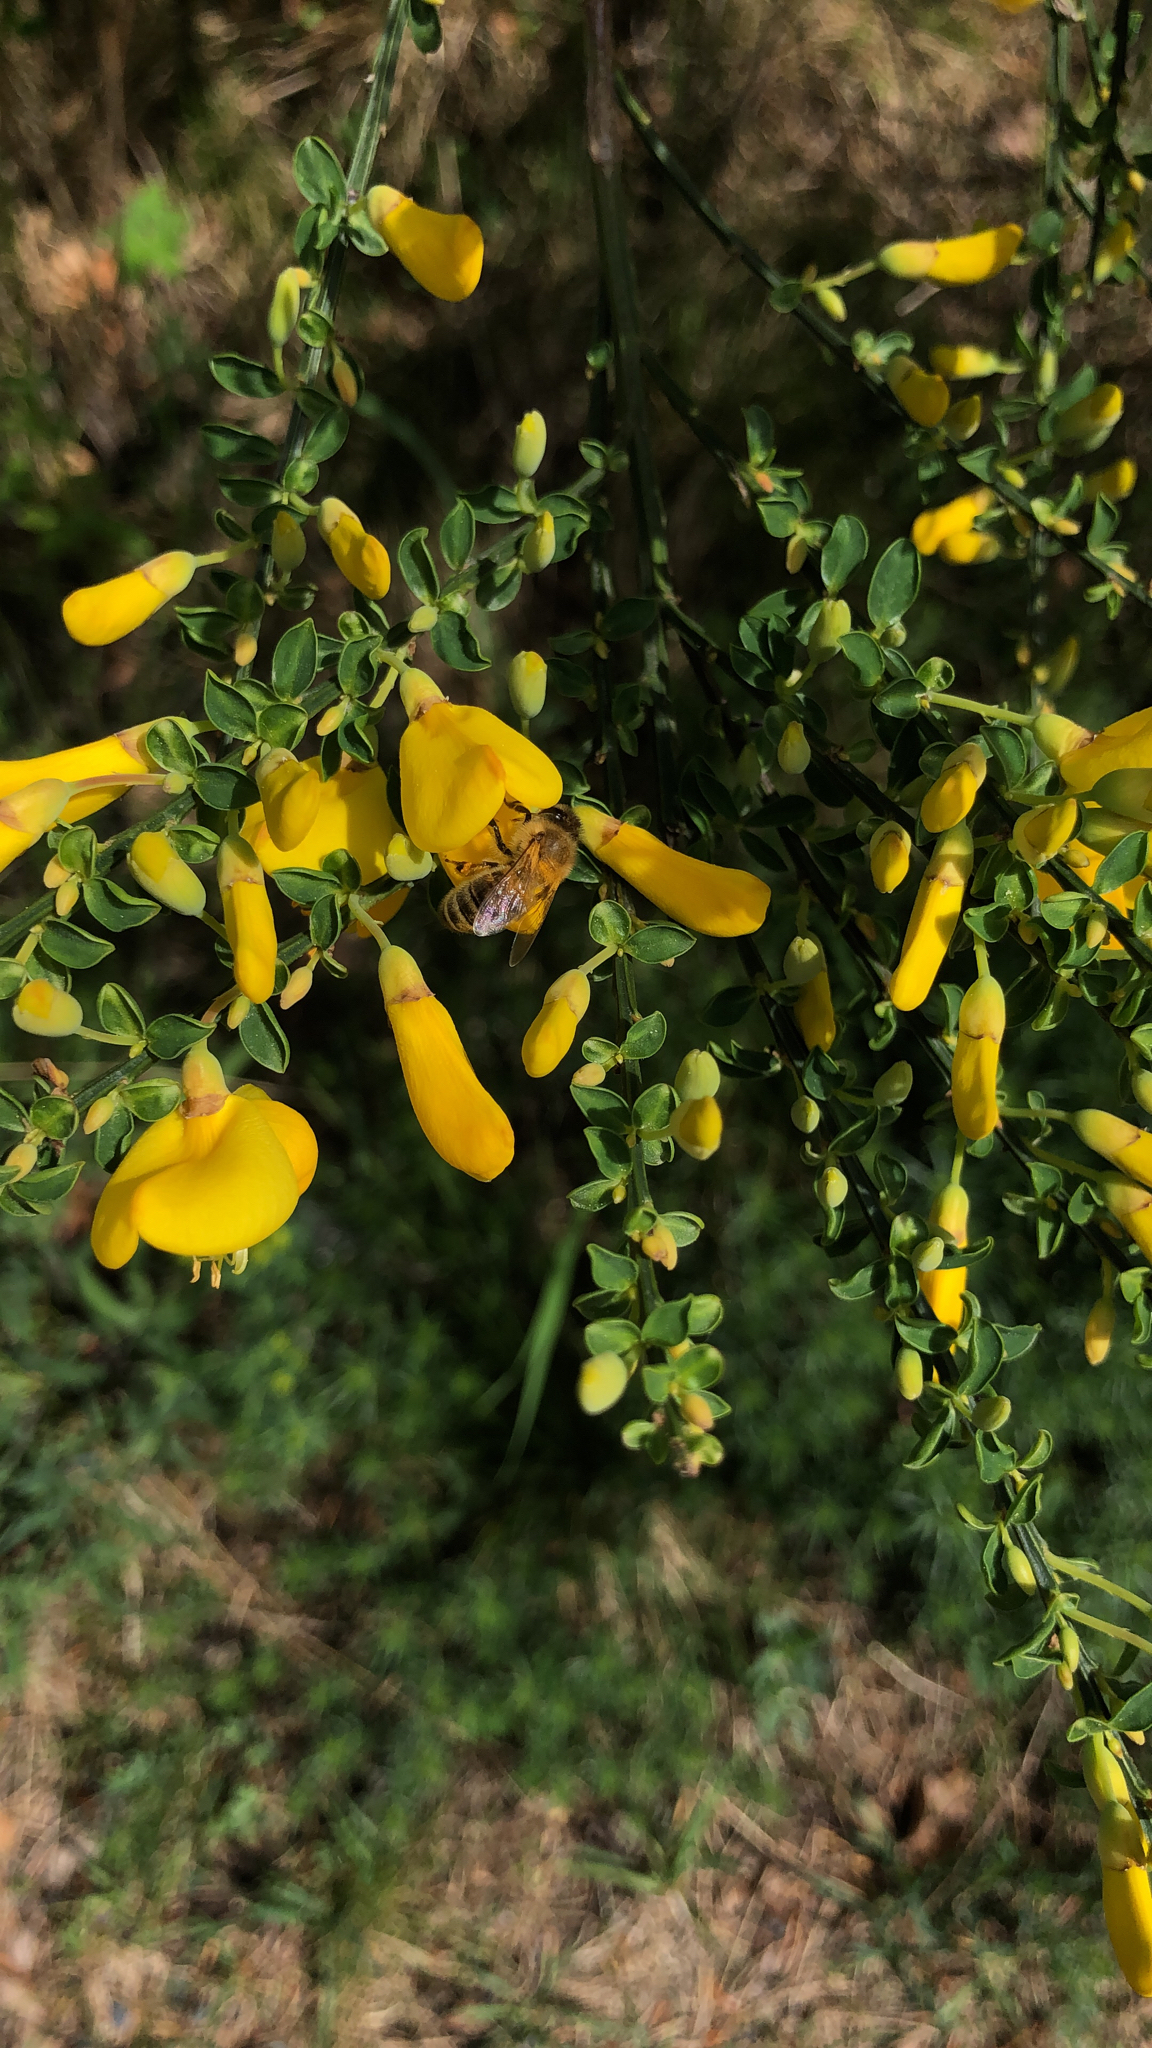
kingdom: Animalia
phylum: Arthropoda
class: Insecta
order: Hymenoptera
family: Apidae
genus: Apis
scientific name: Apis mellifera
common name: Honey bee
